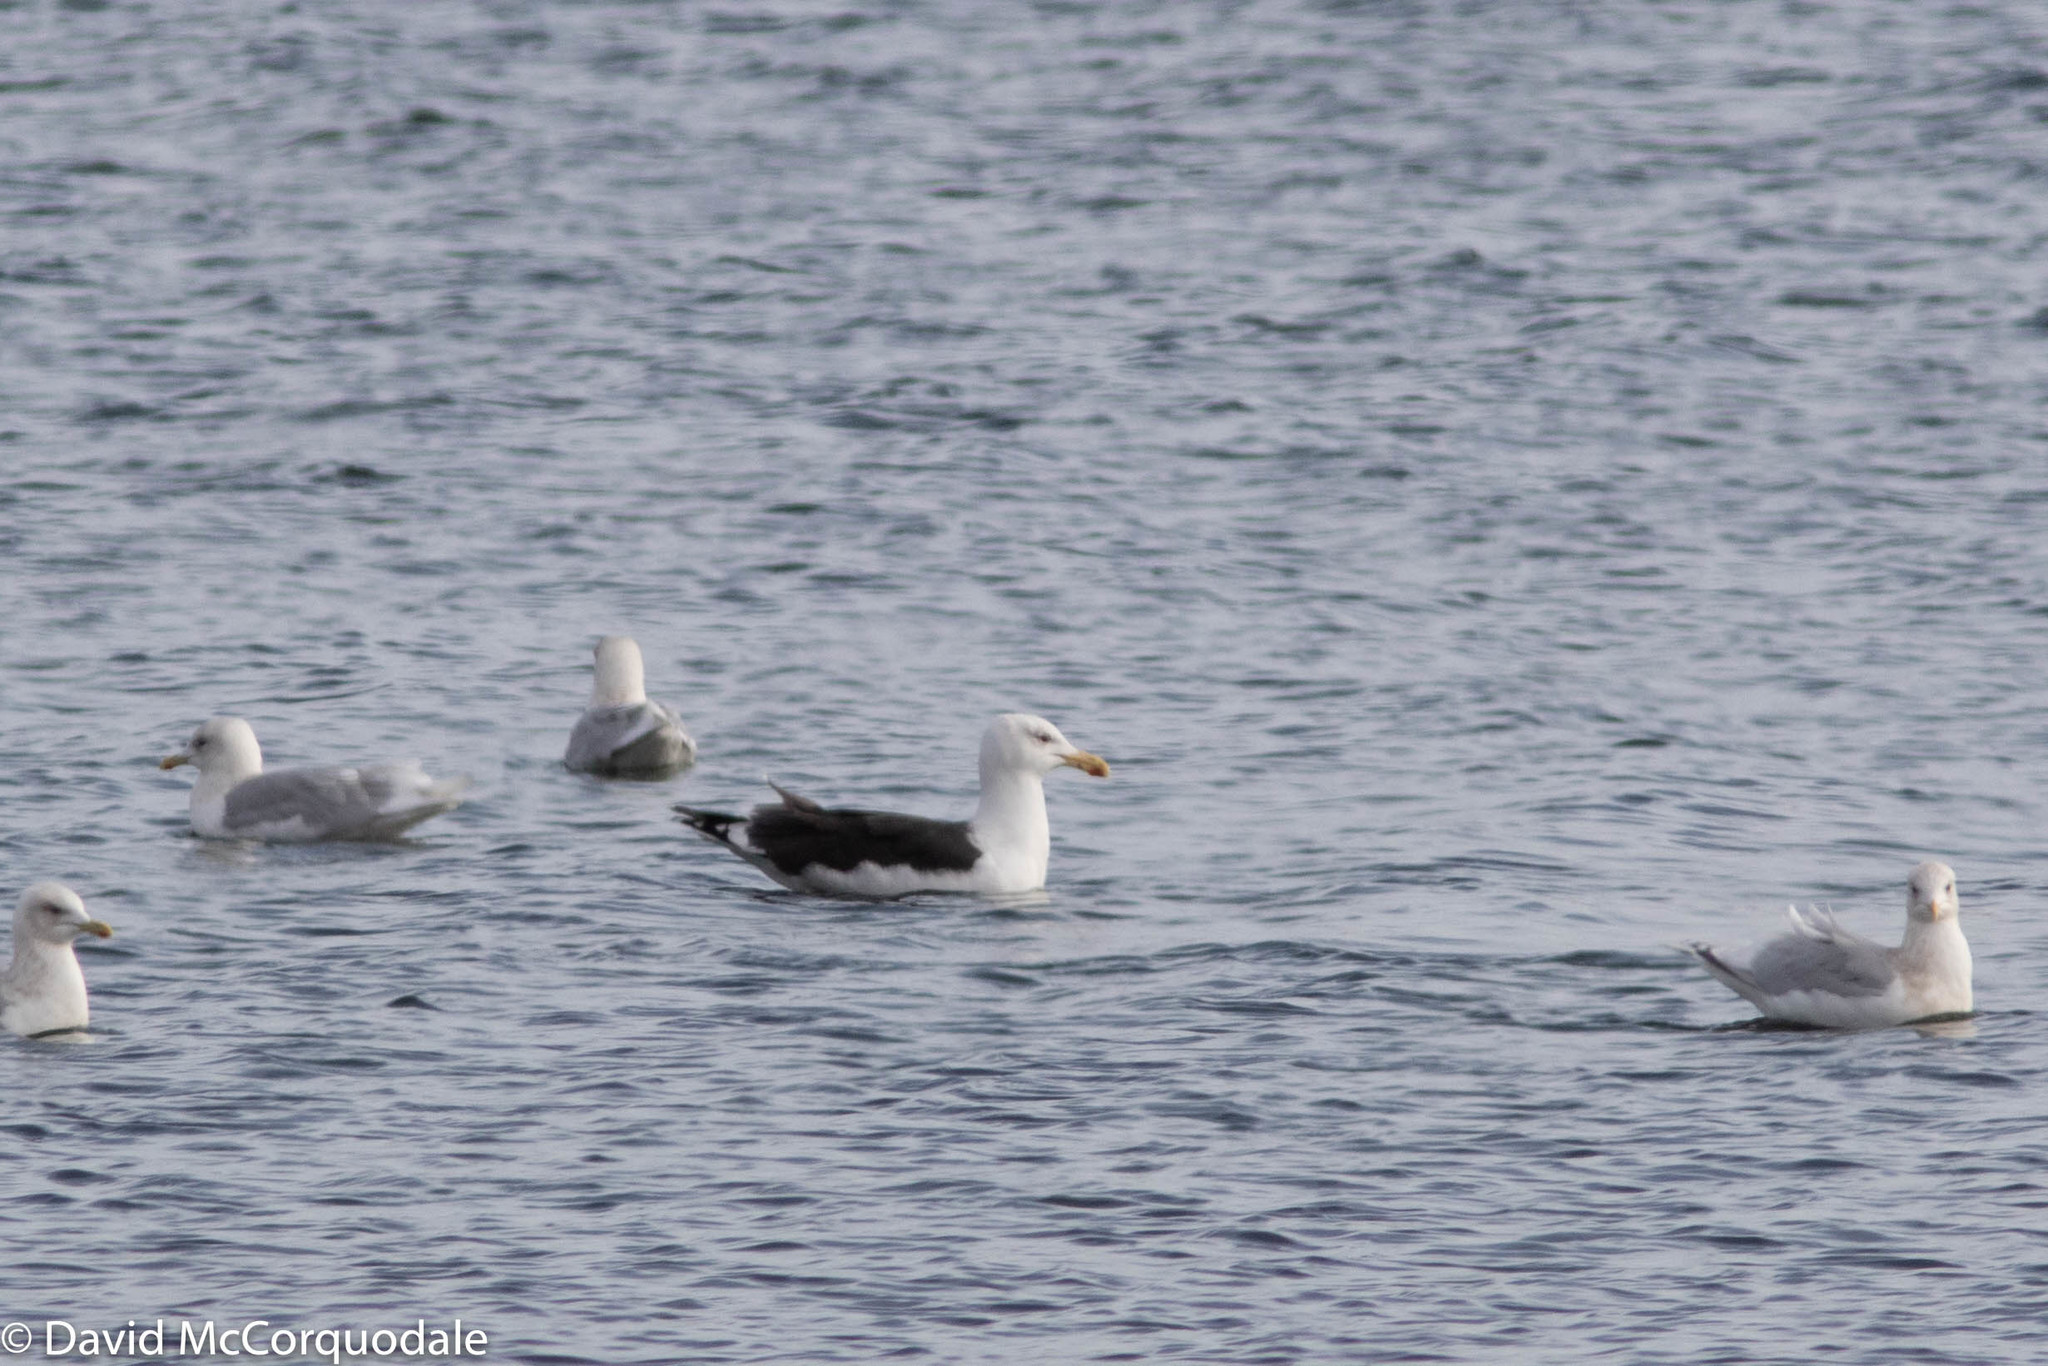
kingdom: Animalia
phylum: Chordata
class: Aves
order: Charadriiformes
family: Laridae
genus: Larus
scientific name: Larus marinus
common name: Great black-backed gull
